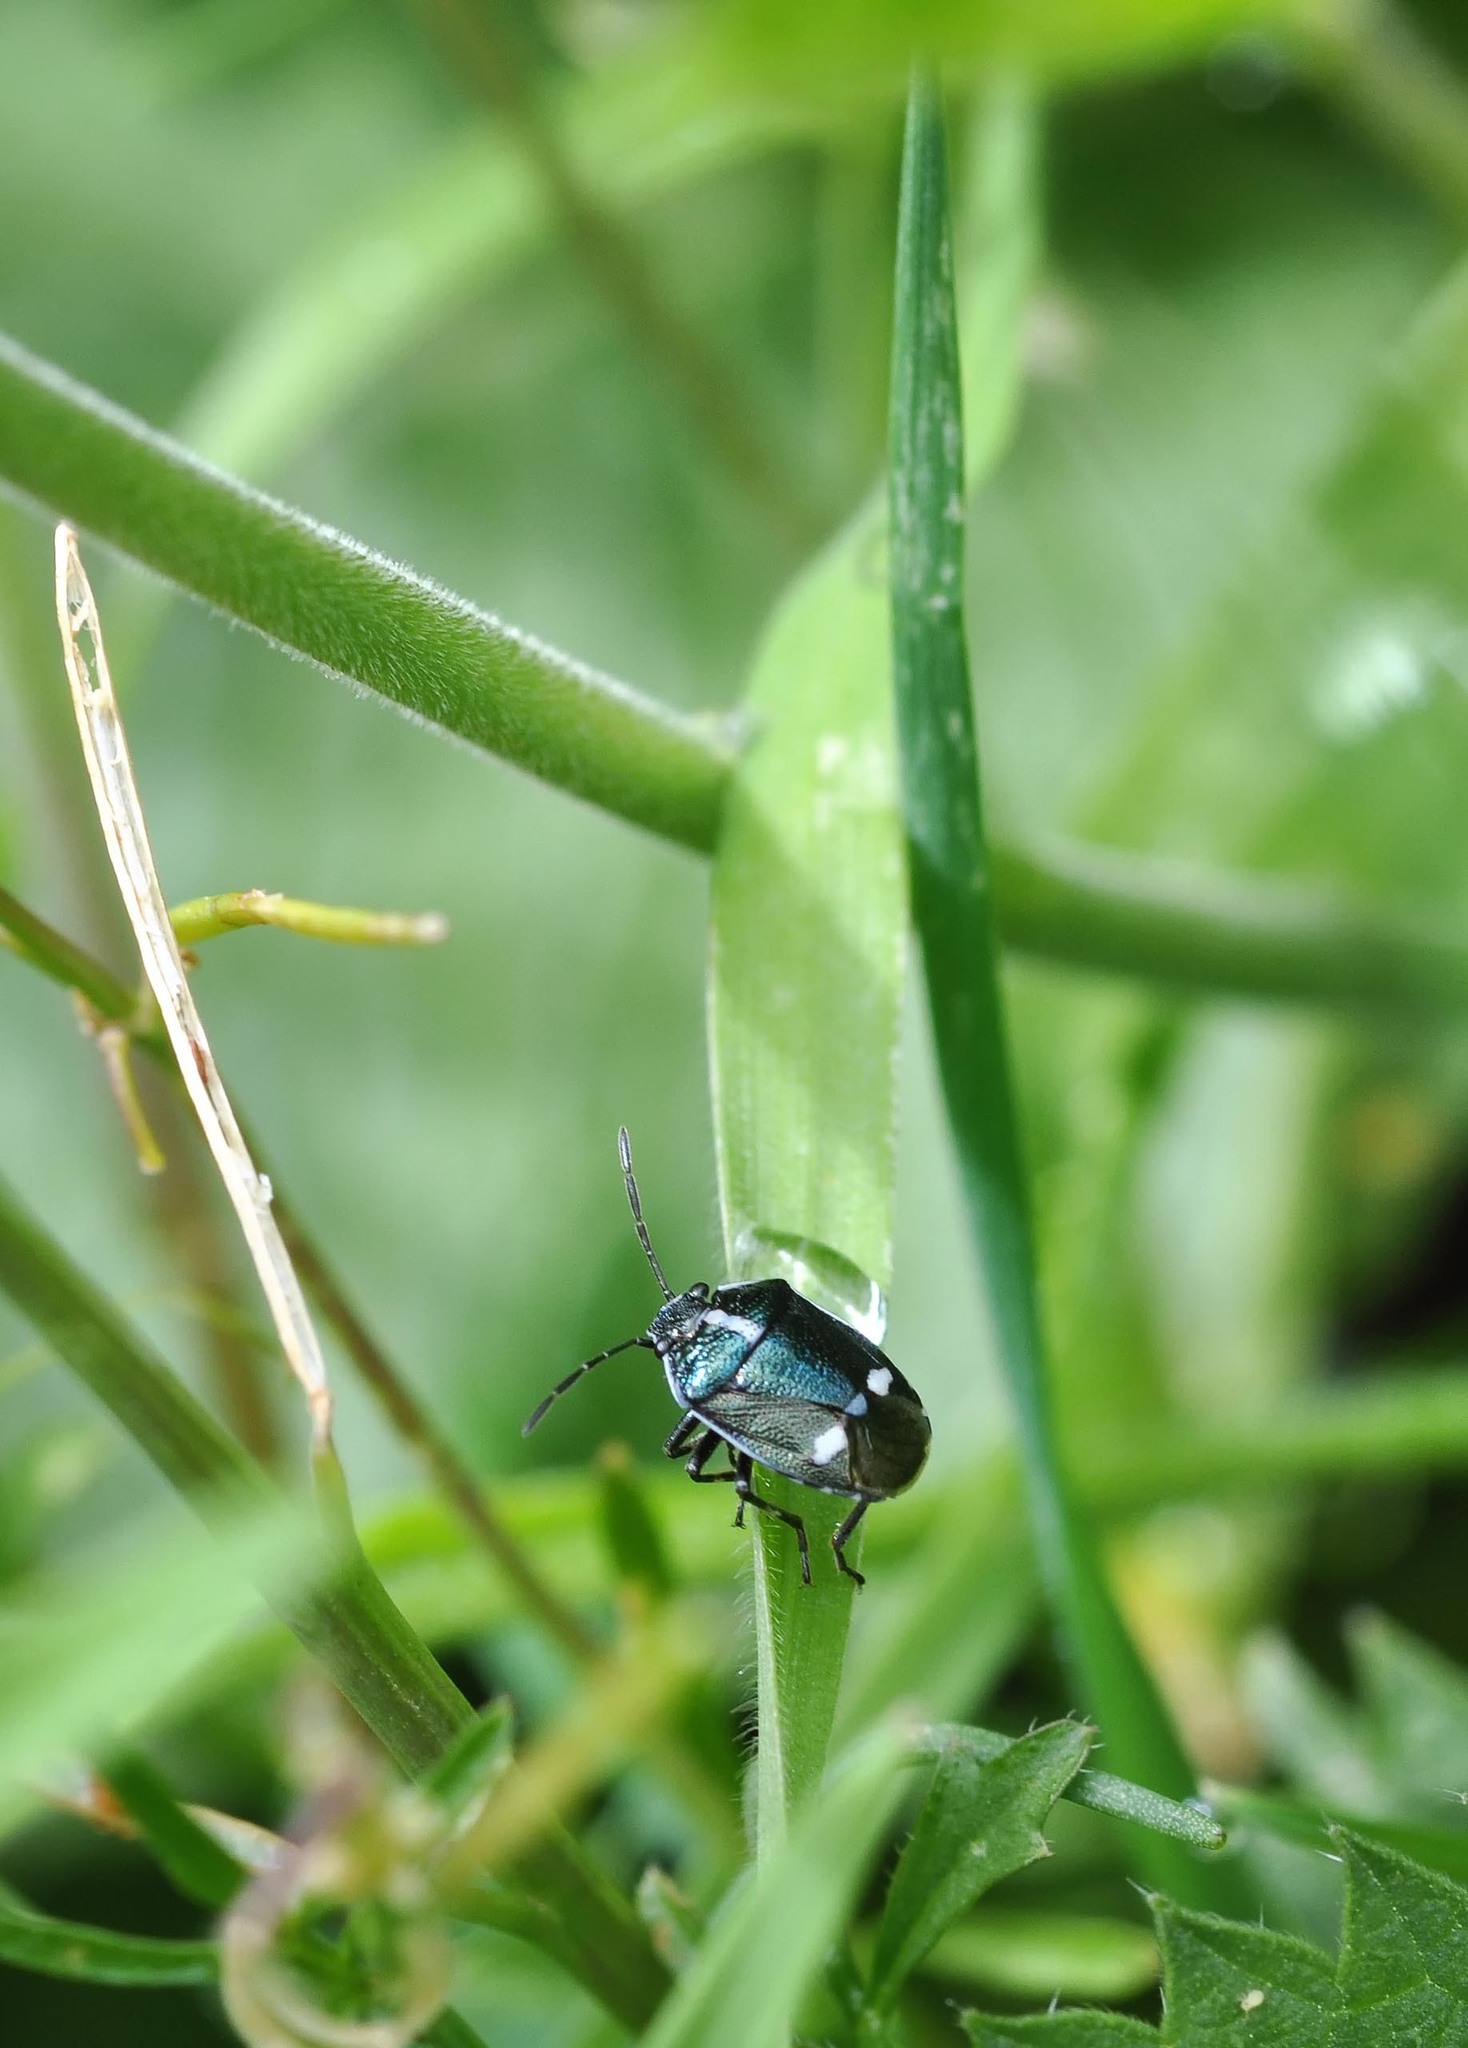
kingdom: Animalia
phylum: Arthropoda
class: Insecta
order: Hemiptera
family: Pentatomidae
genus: Eurydema
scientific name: Eurydema oleracea
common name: Cabbage bug
